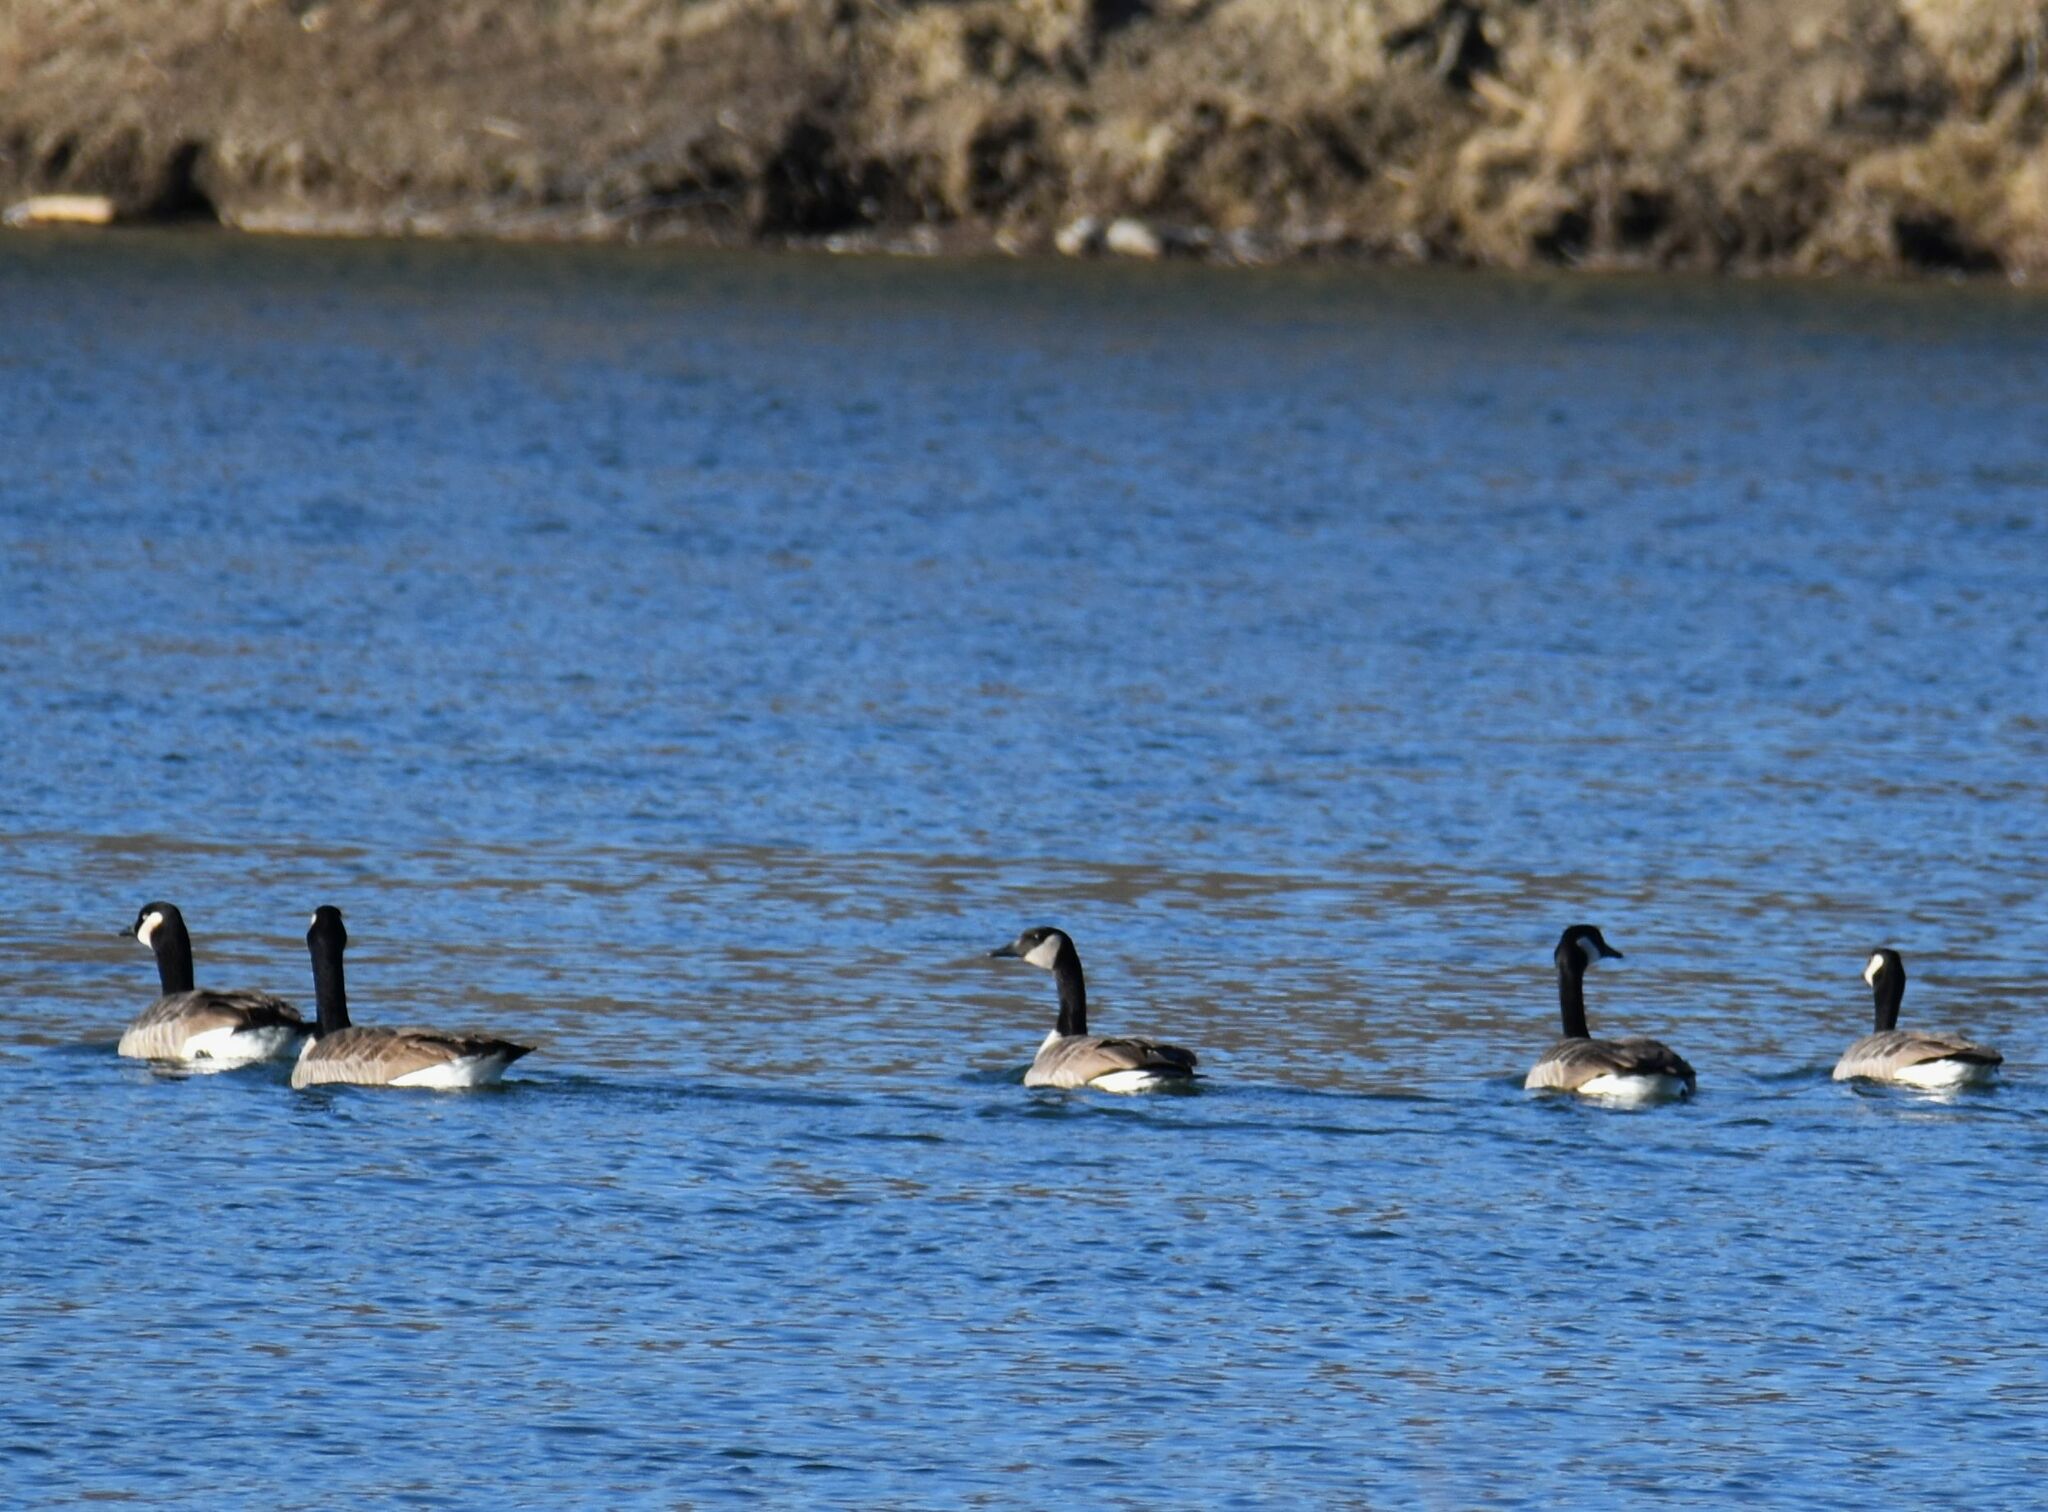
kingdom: Animalia
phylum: Chordata
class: Aves
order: Anseriformes
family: Anatidae
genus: Branta
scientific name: Branta canadensis
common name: Canada goose
